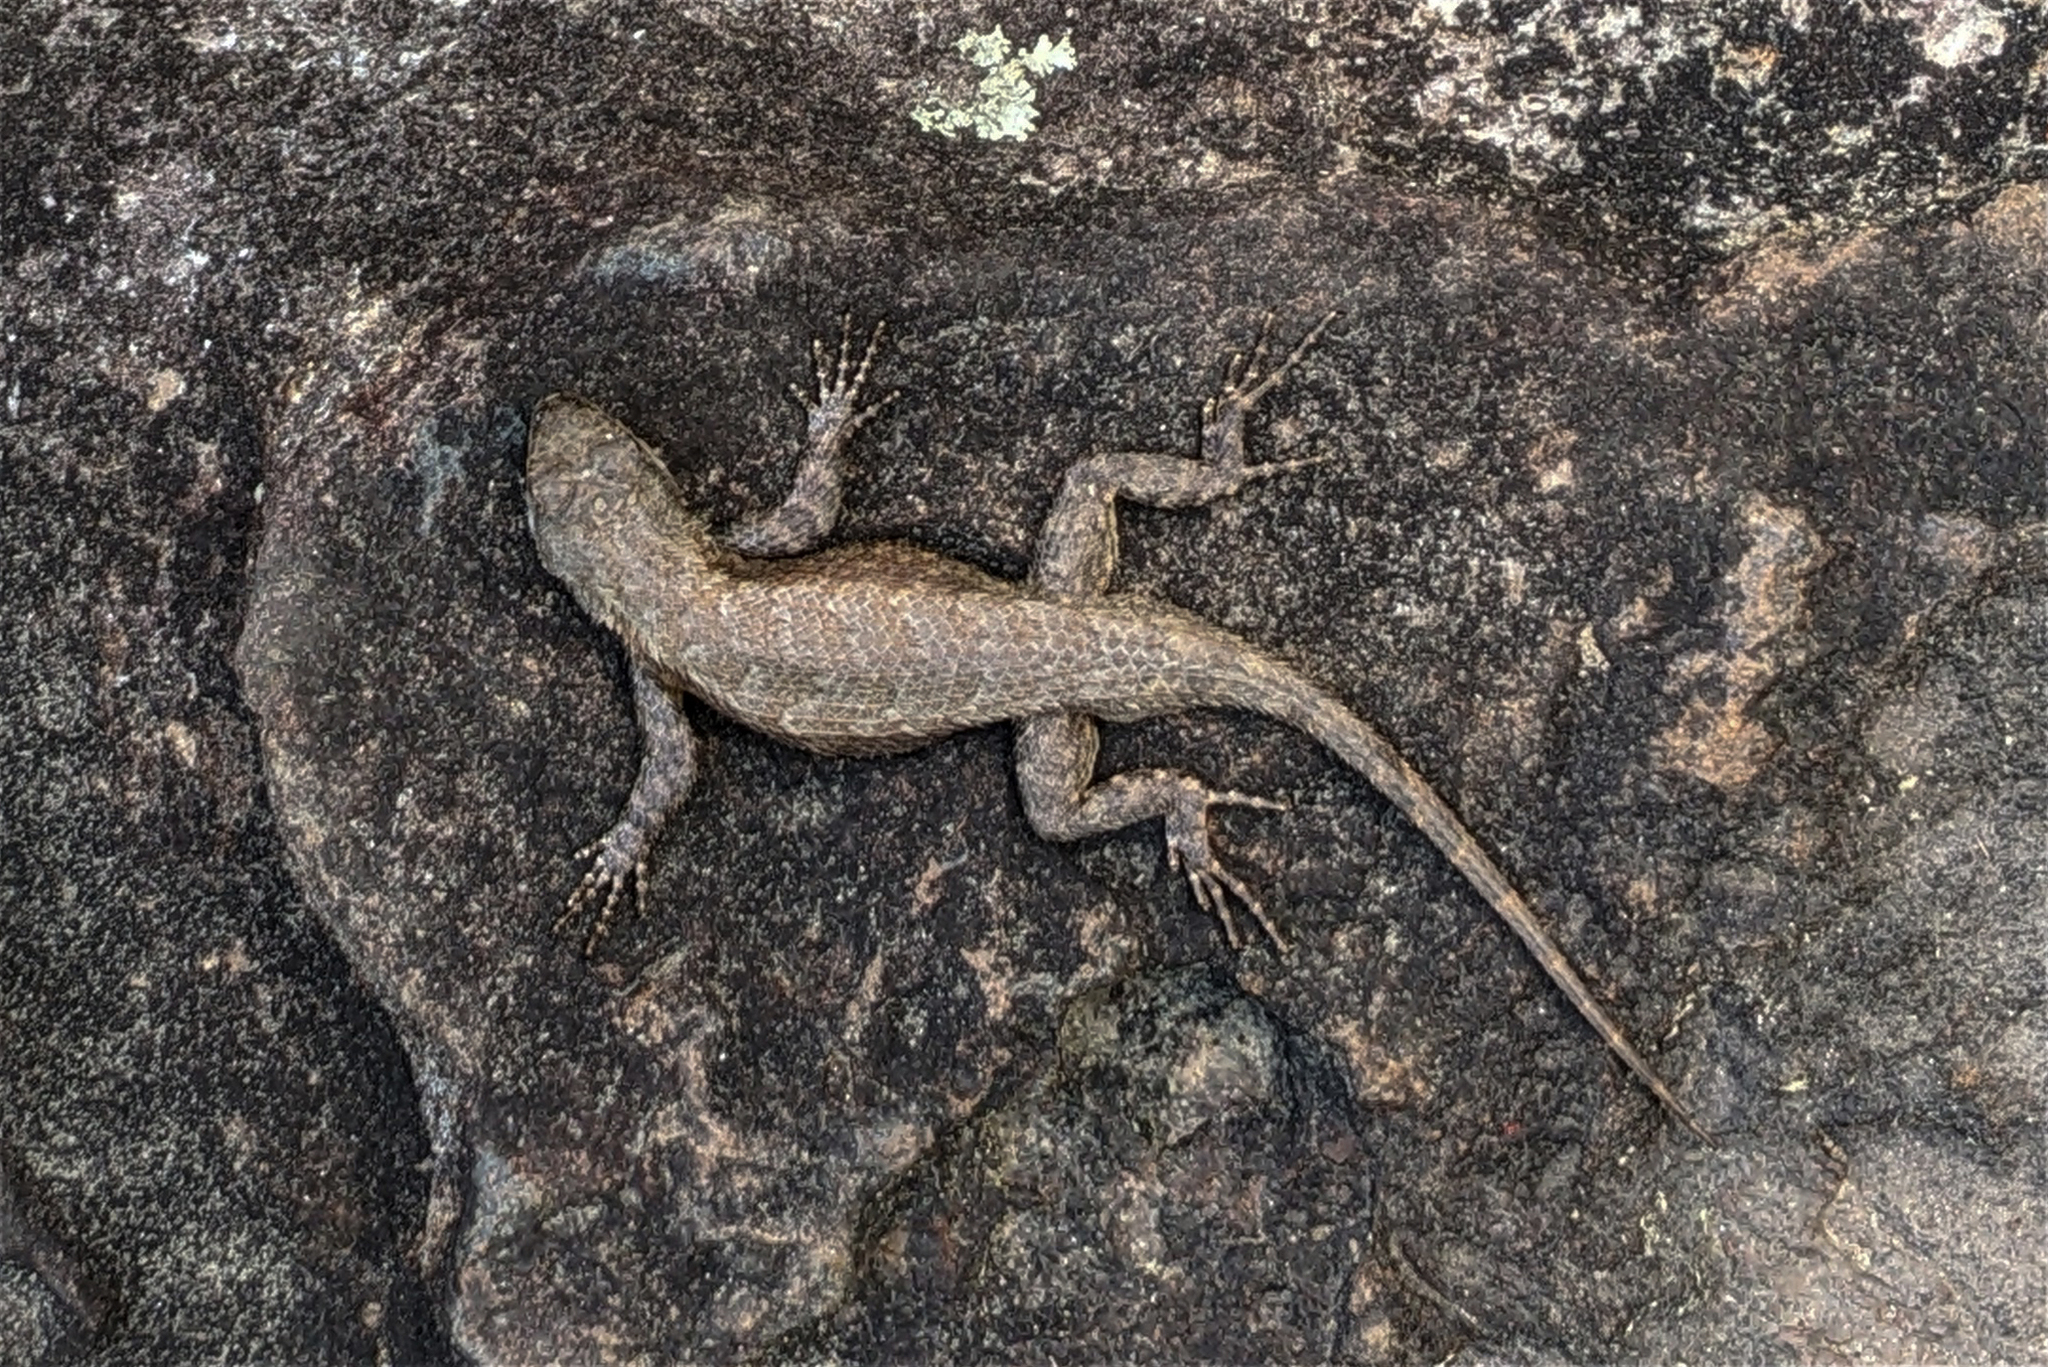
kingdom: Animalia
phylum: Chordata
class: Squamata
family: Phrynosomatidae
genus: Sceloporus
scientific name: Sceloporus undulatus
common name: Eastern fence lizard
